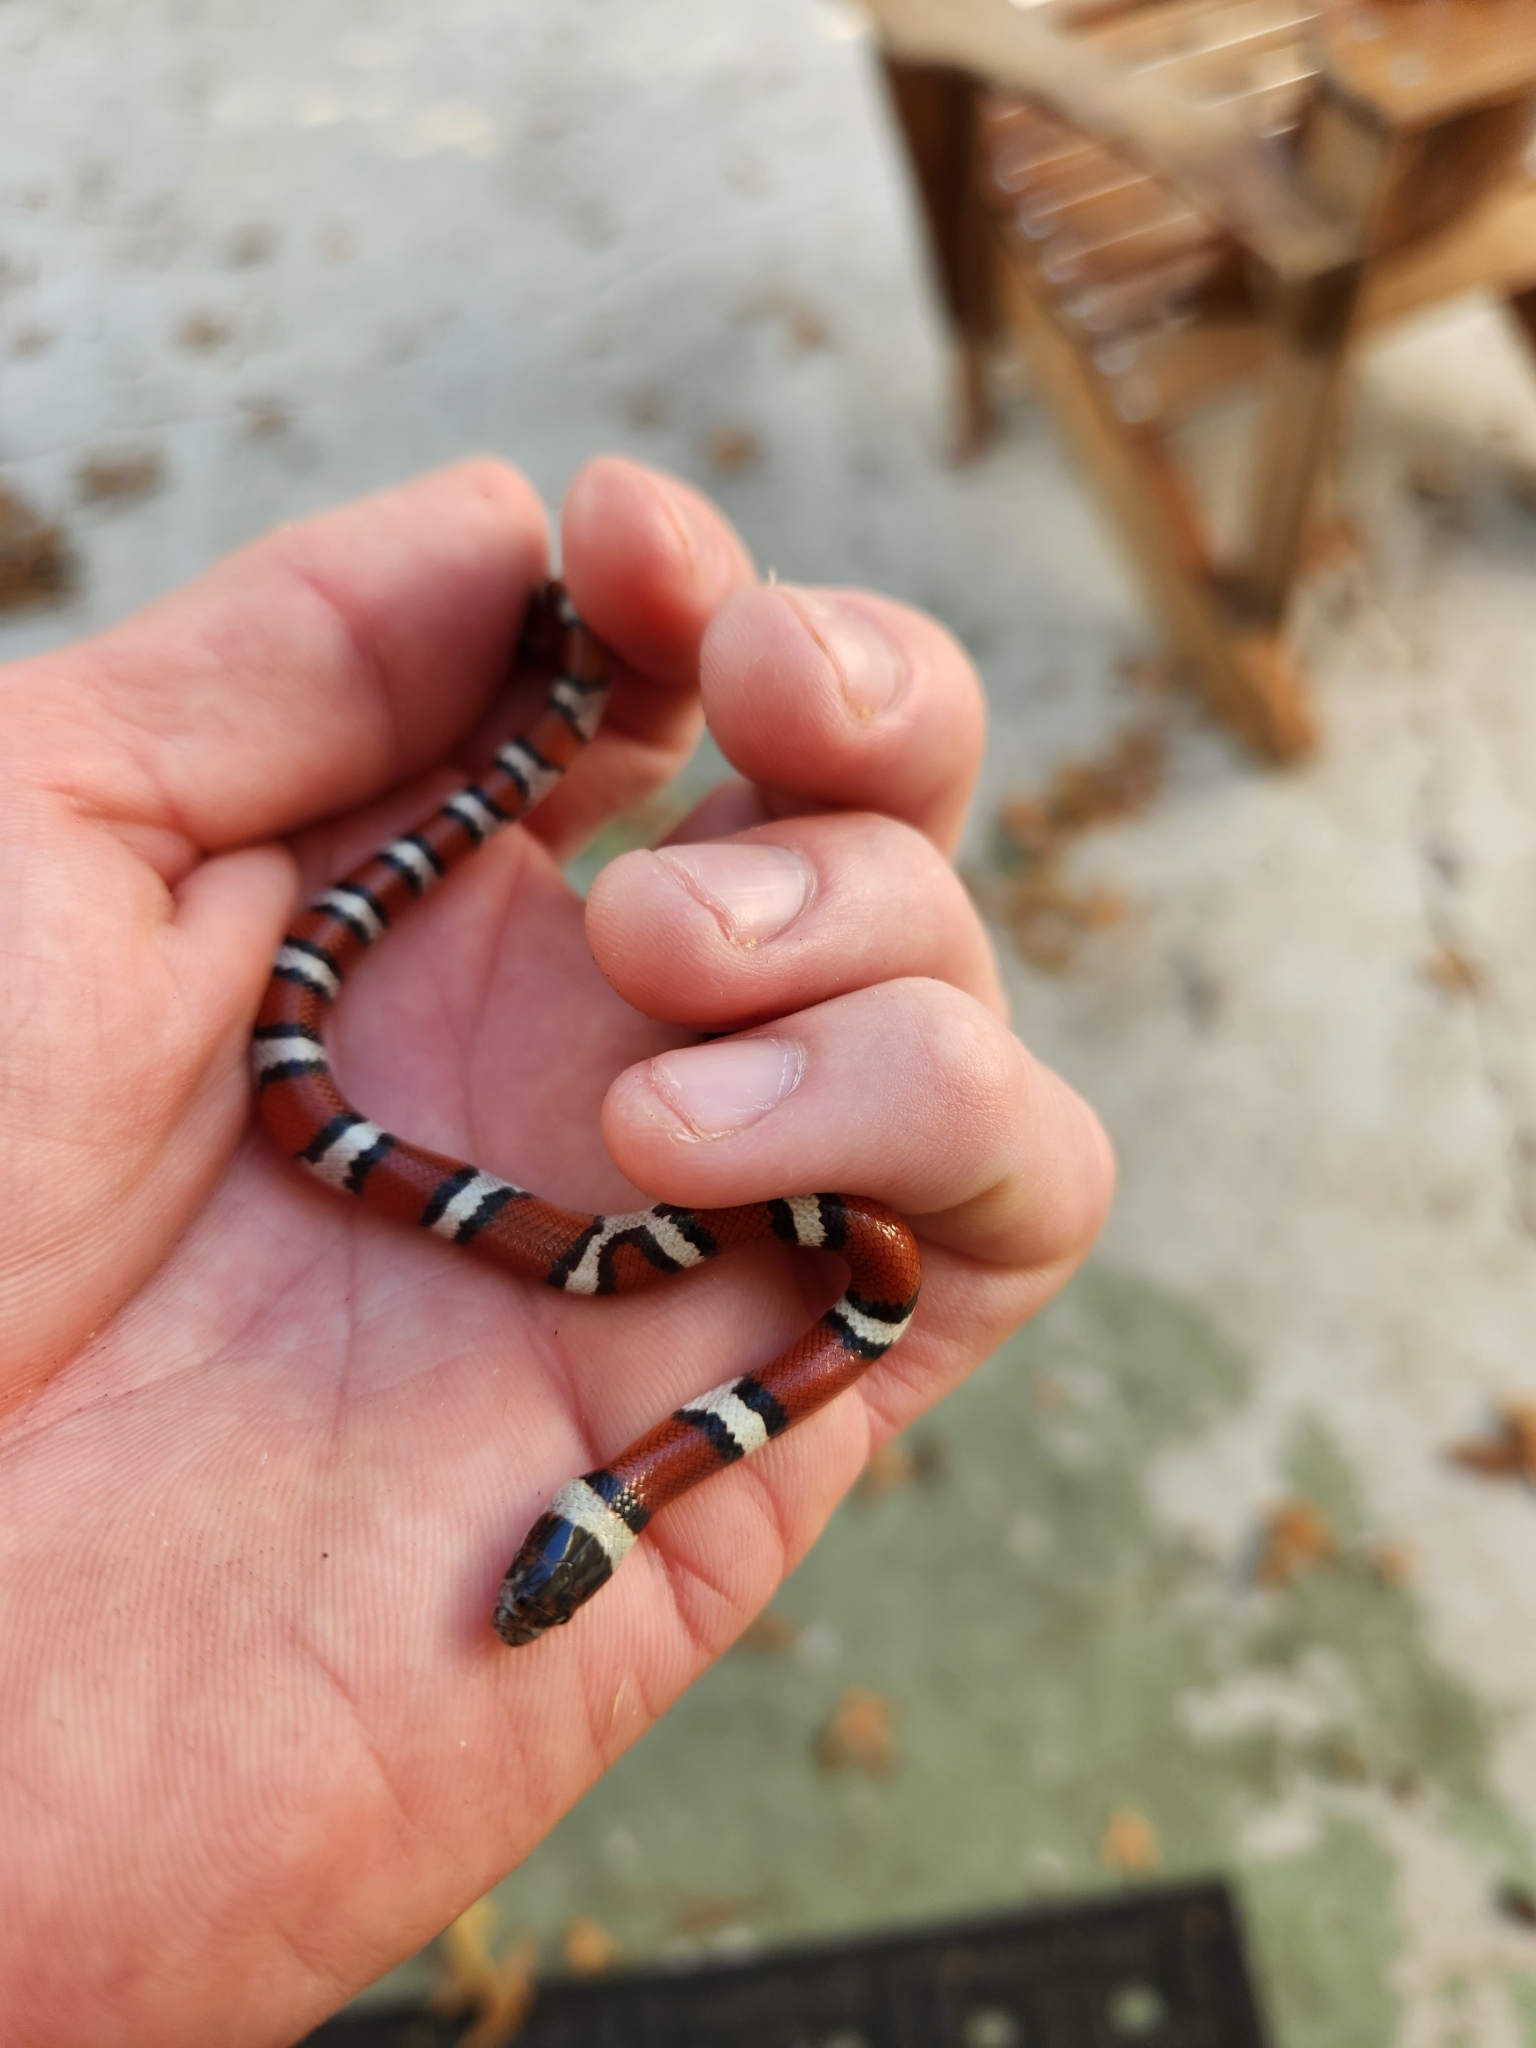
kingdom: Animalia
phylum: Chordata
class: Squamata
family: Colubridae
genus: Lampropeltis
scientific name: Lampropeltis gentilis
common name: Central plains milksnake
